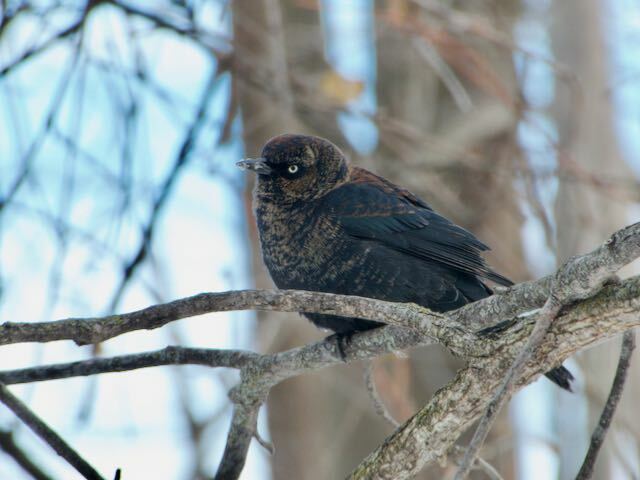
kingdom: Animalia
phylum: Chordata
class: Aves
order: Passeriformes
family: Icteridae
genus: Euphagus
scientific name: Euphagus carolinus
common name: Rusty blackbird
